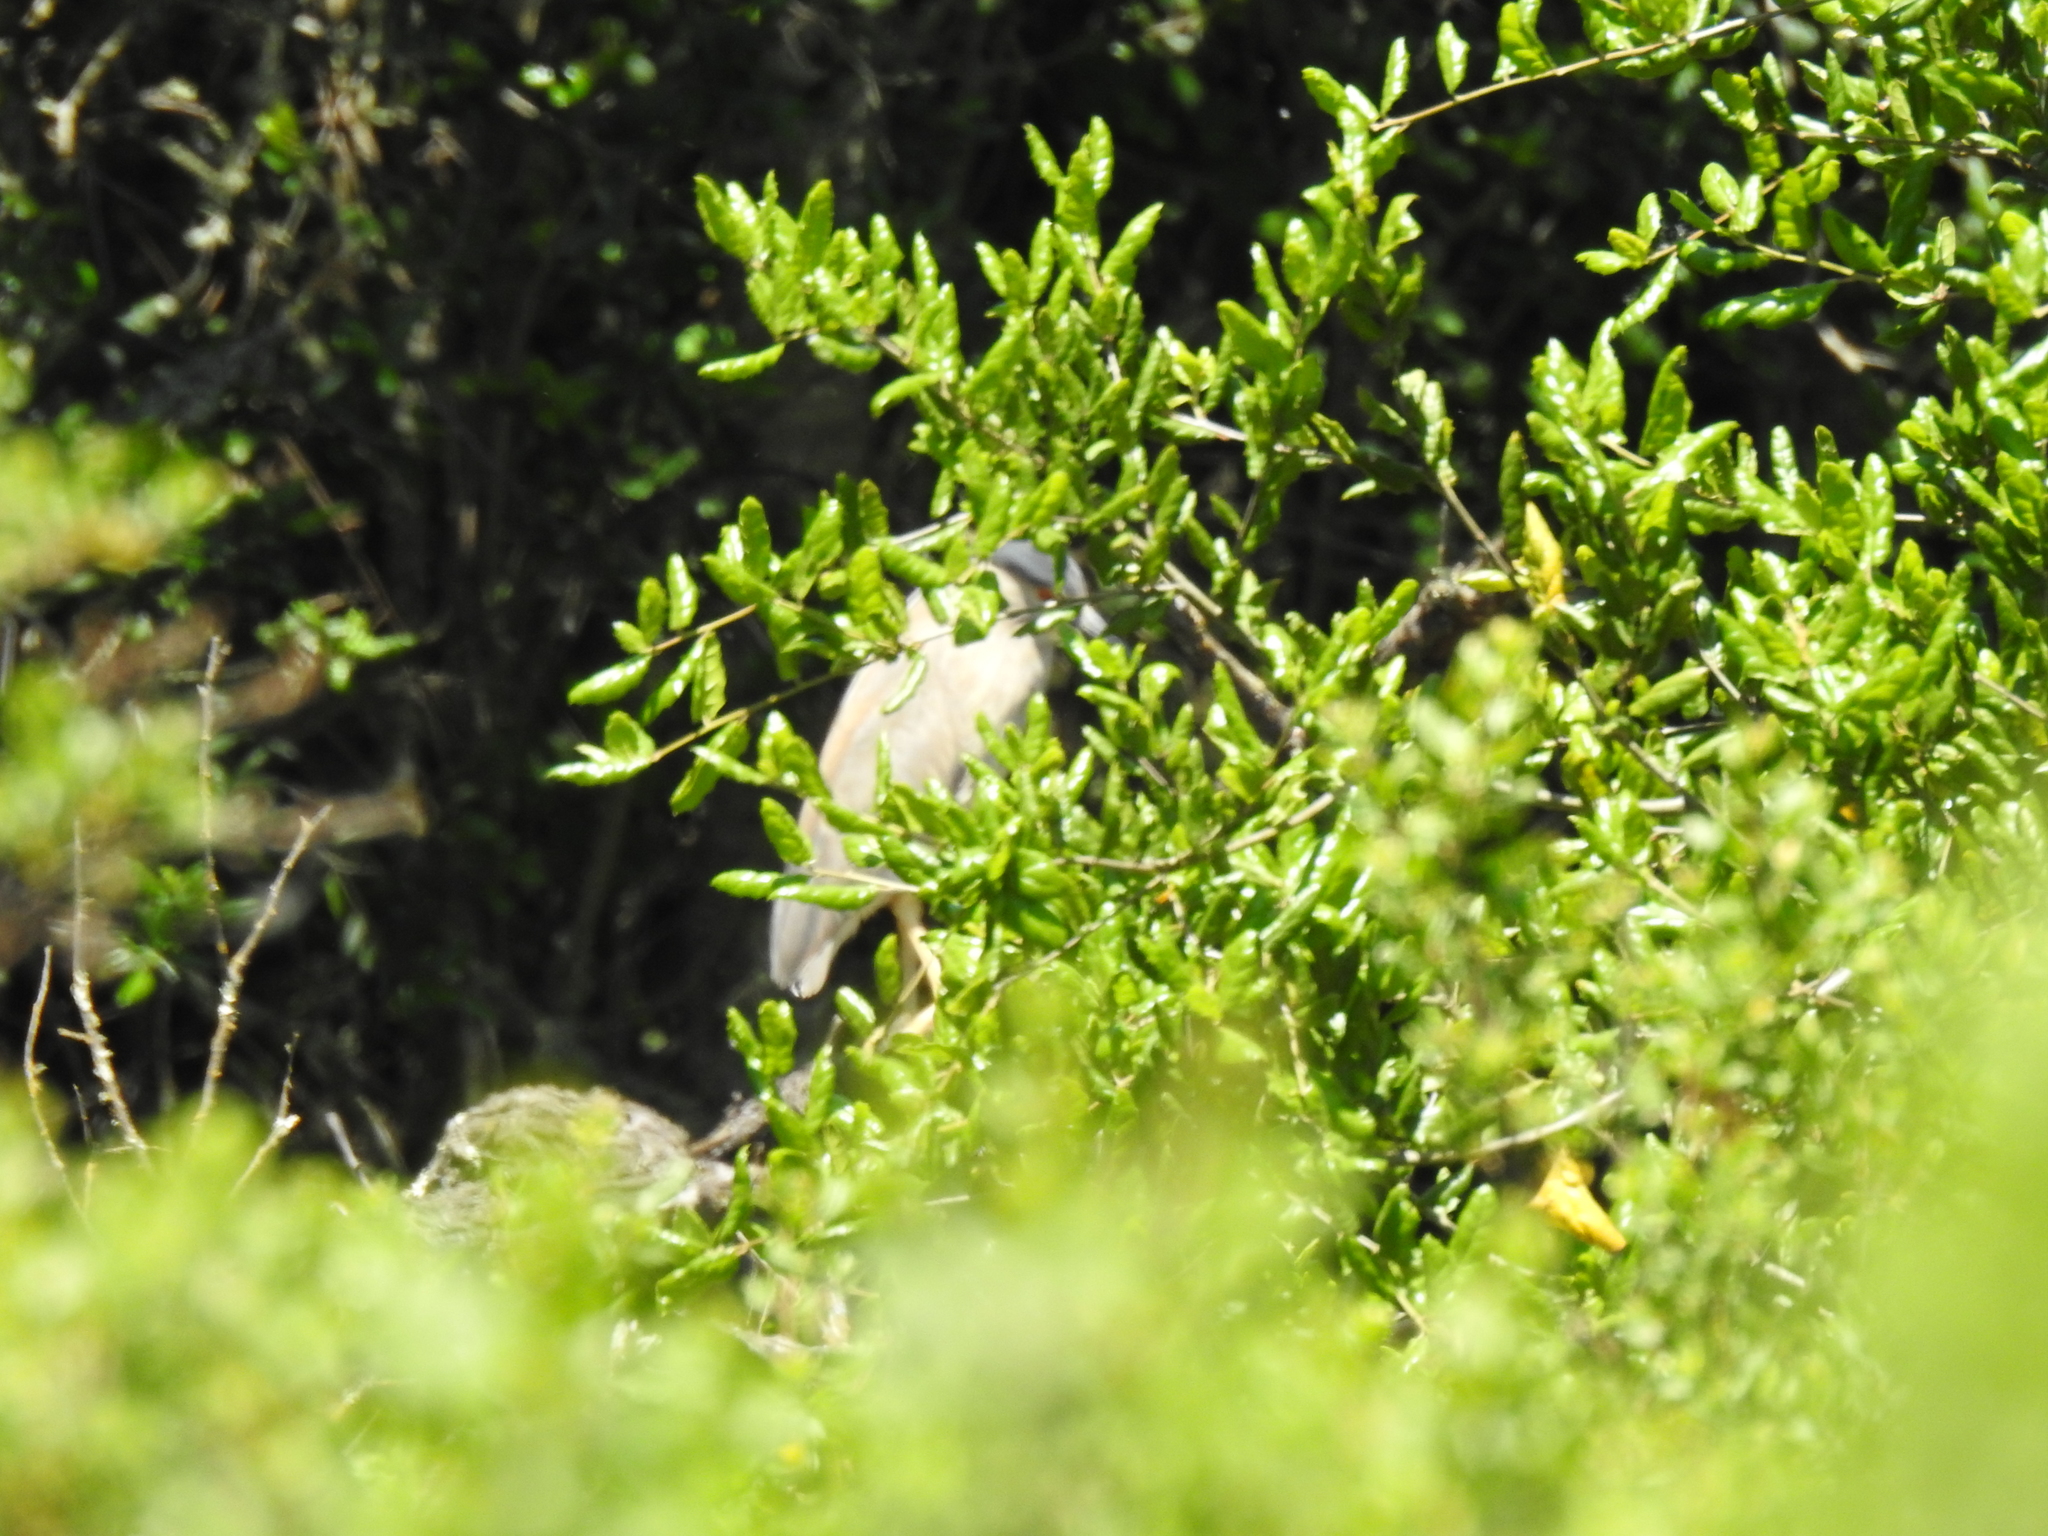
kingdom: Animalia
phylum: Chordata
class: Aves
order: Pelecaniformes
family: Ardeidae
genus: Nycticorax
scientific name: Nycticorax nycticorax
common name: Black-crowned night heron
